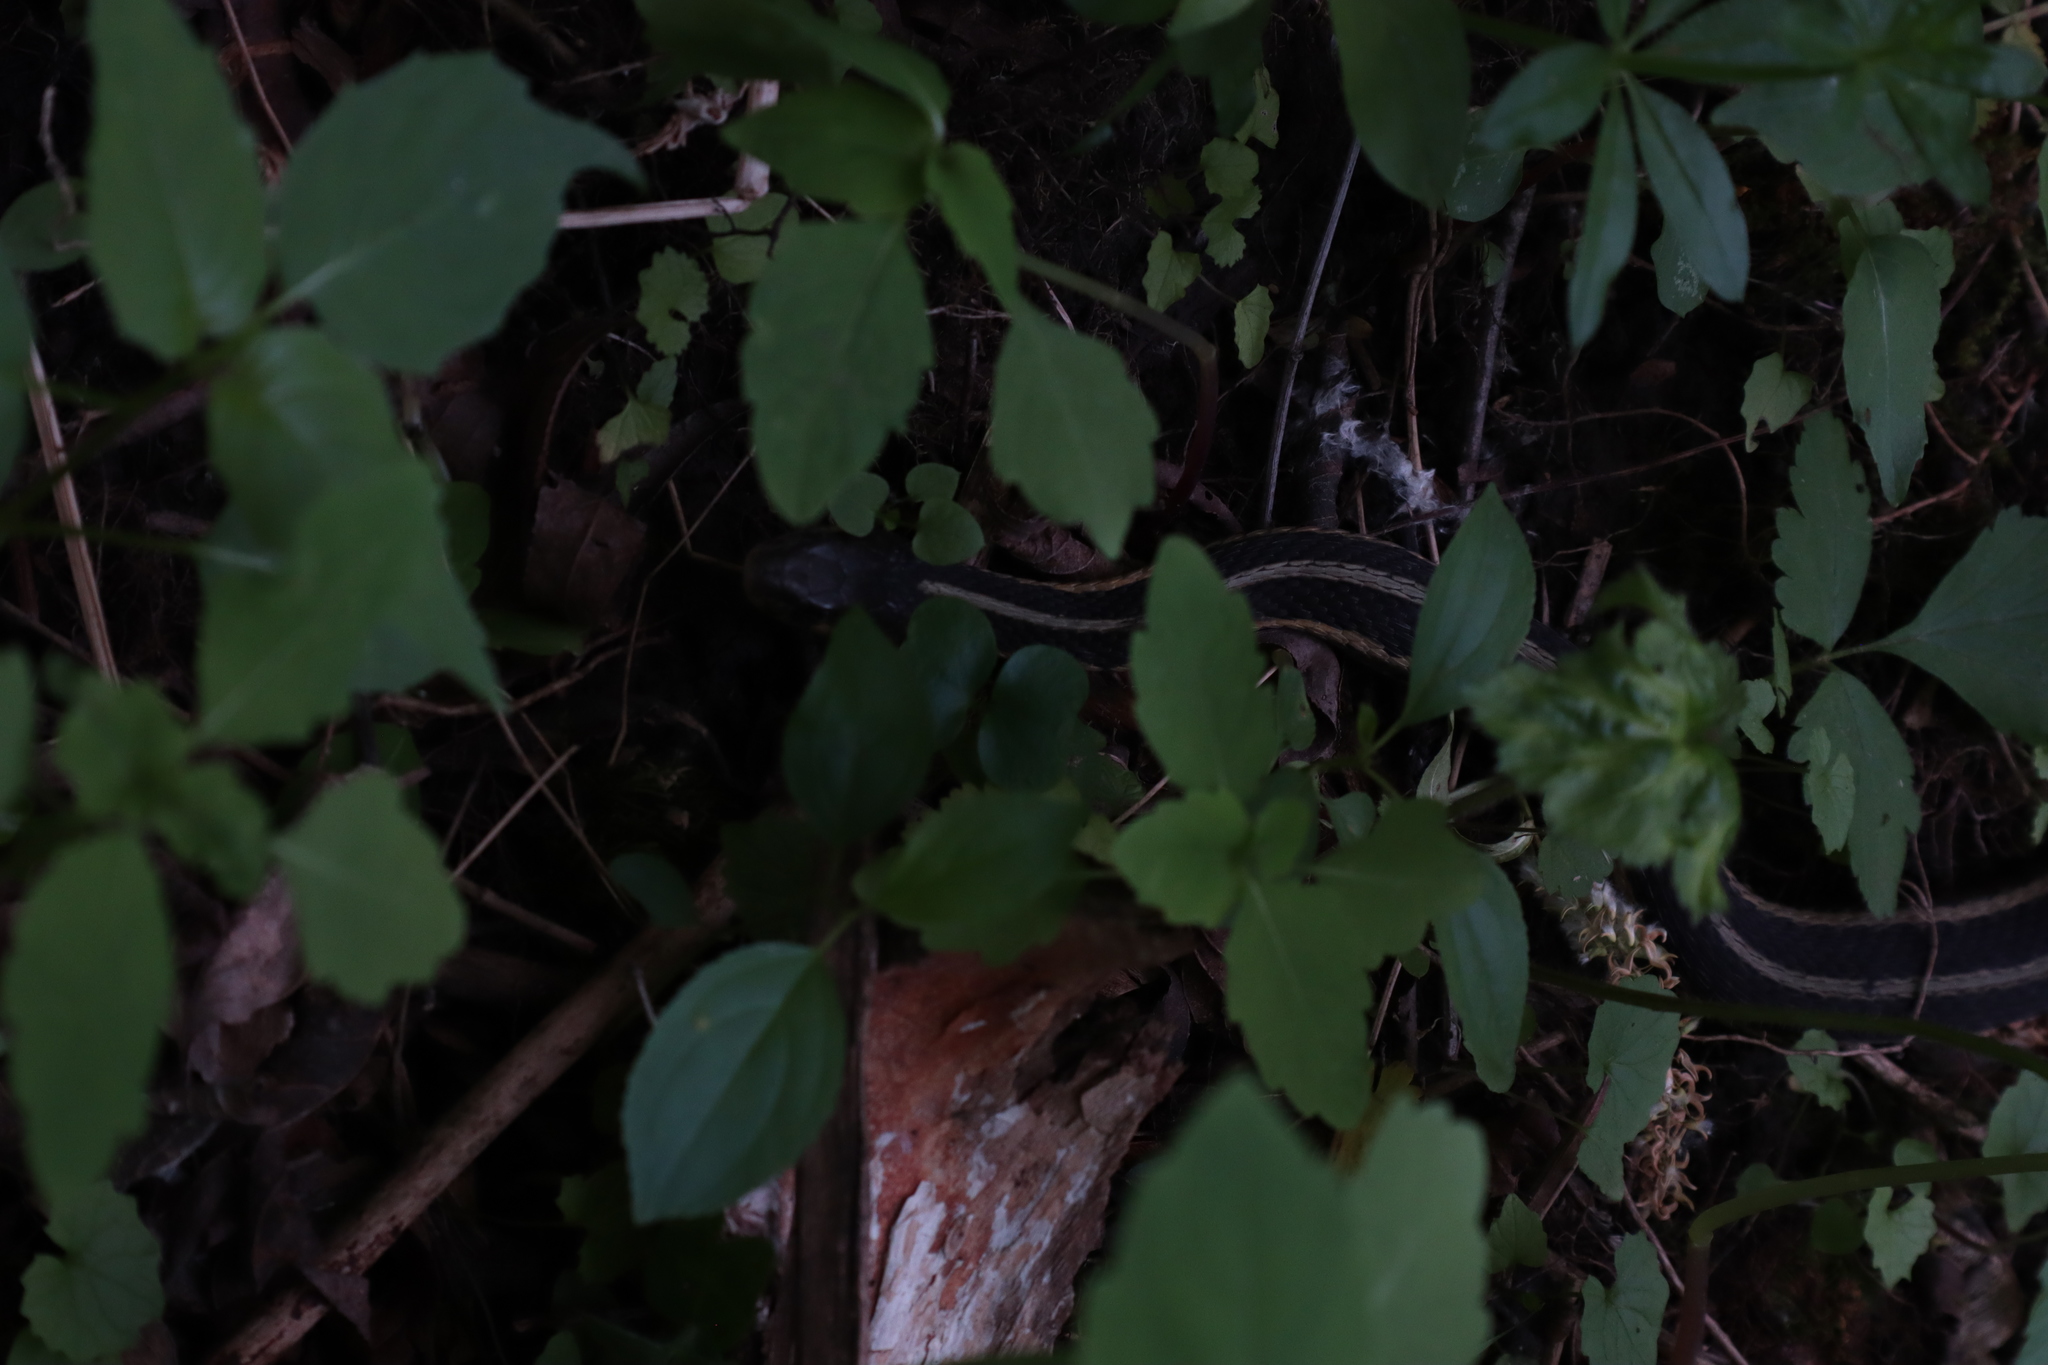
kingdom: Animalia
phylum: Chordata
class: Squamata
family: Colubridae
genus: Thamnophis
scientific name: Thamnophis sirtalis
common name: Common garter snake
